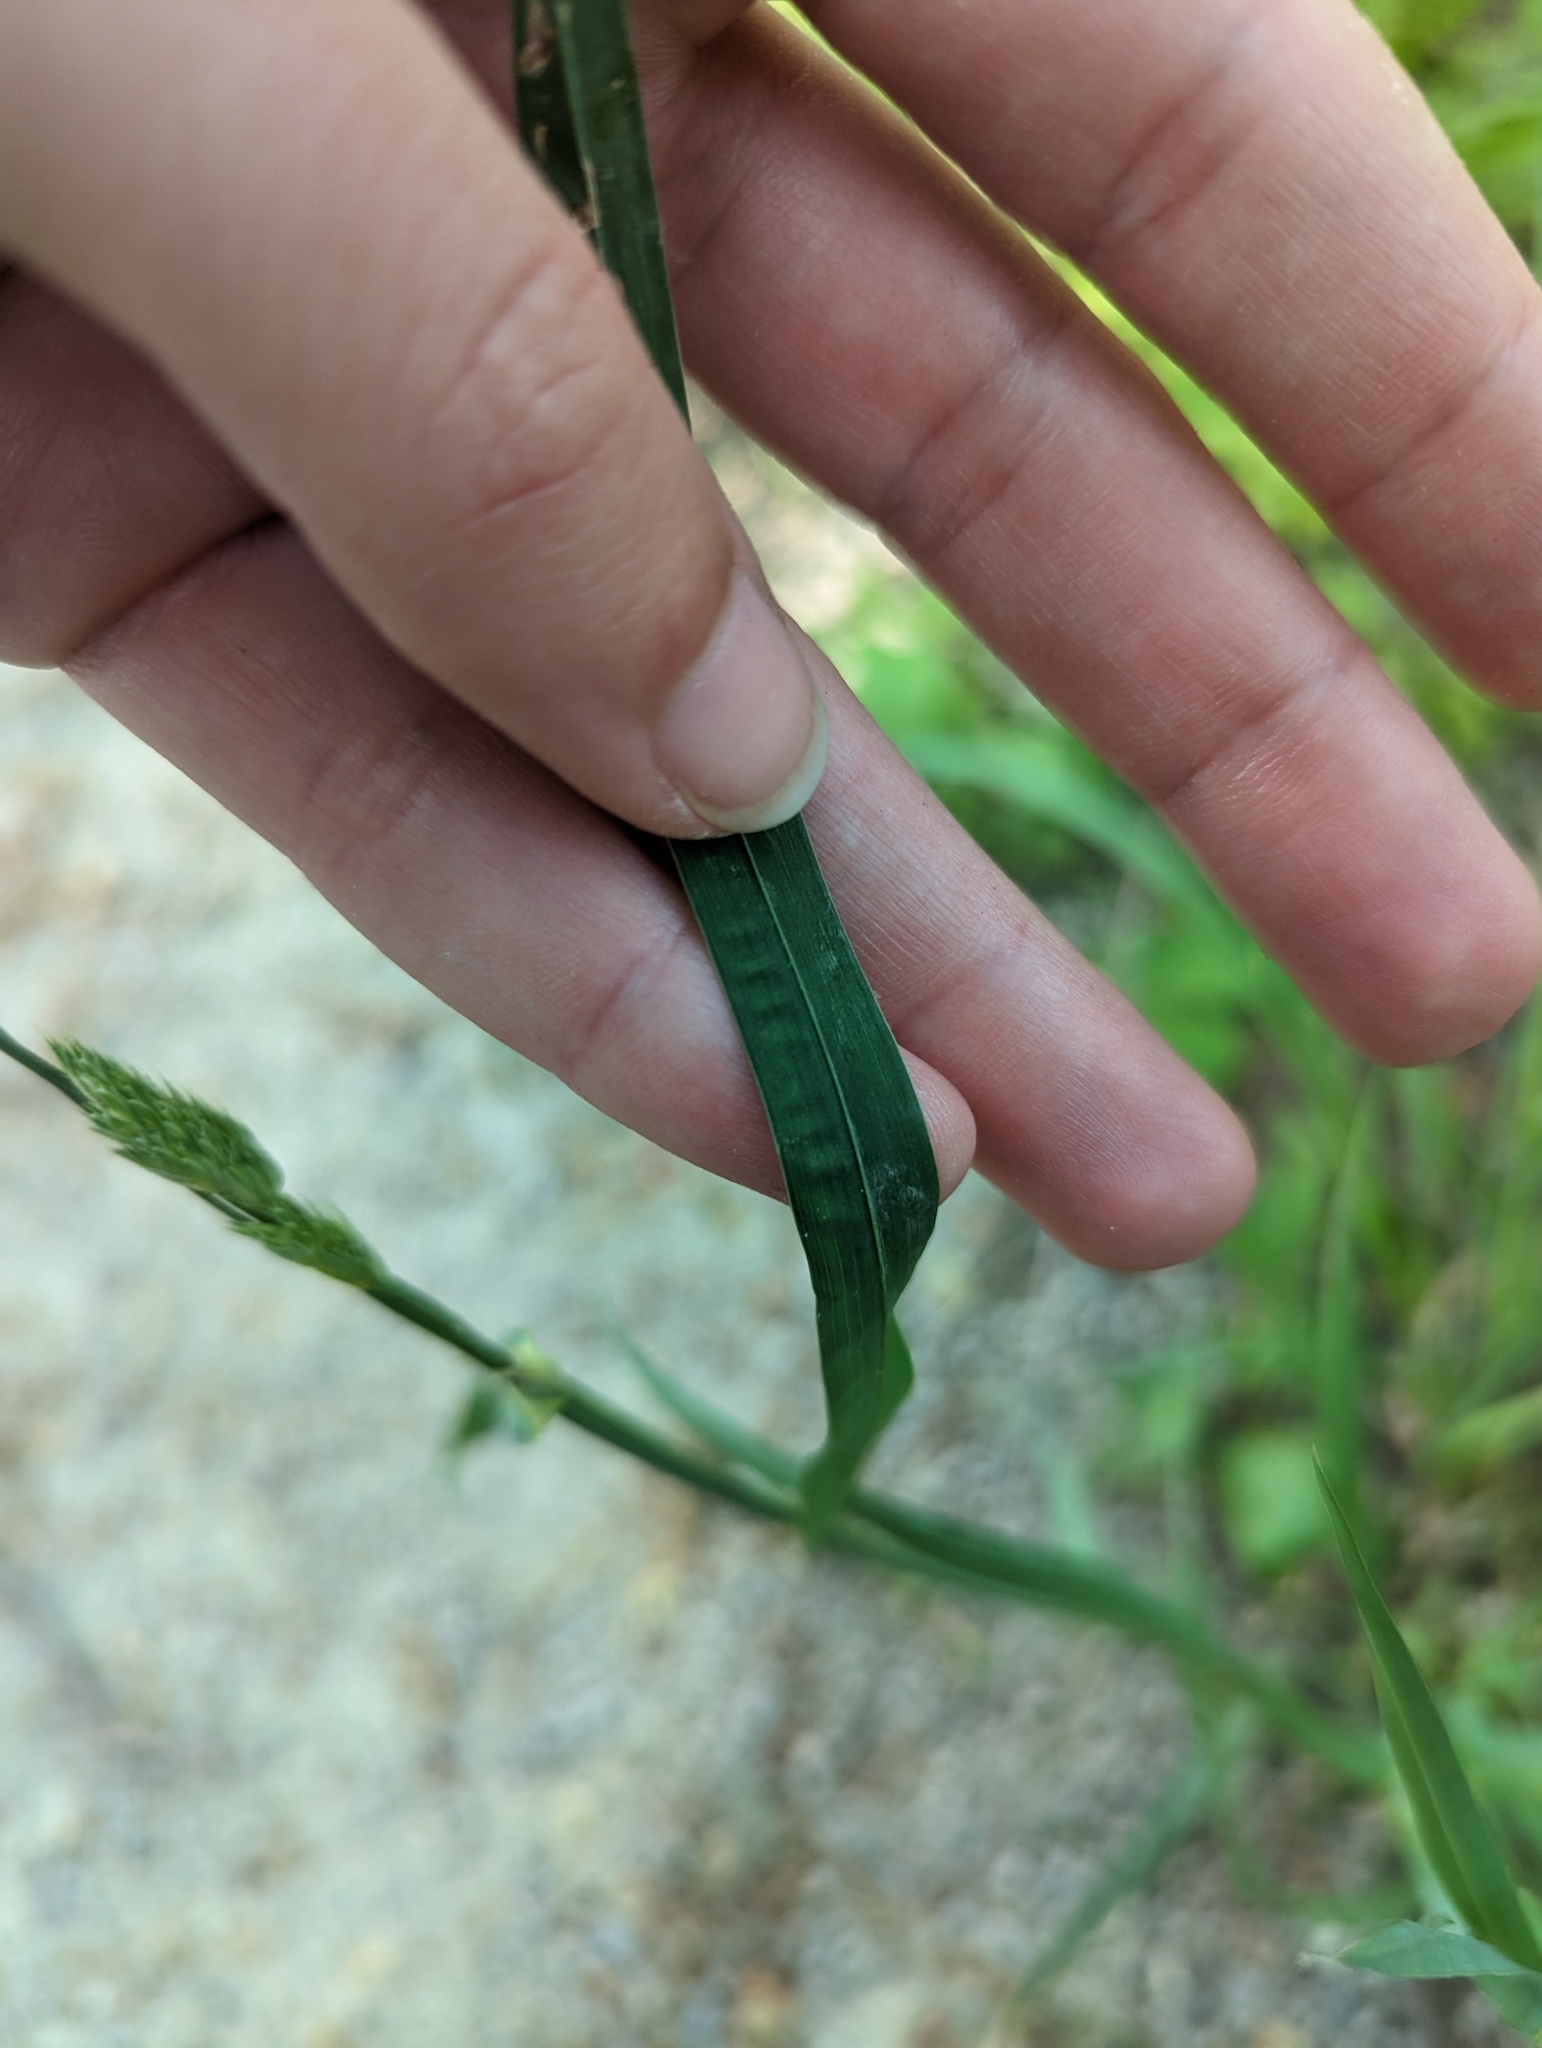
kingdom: Plantae
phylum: Tracheophyta
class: Liliopsida
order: Poales
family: Poaceae
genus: Dactylis
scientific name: Dactylis glomerata
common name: Orchardgrass
